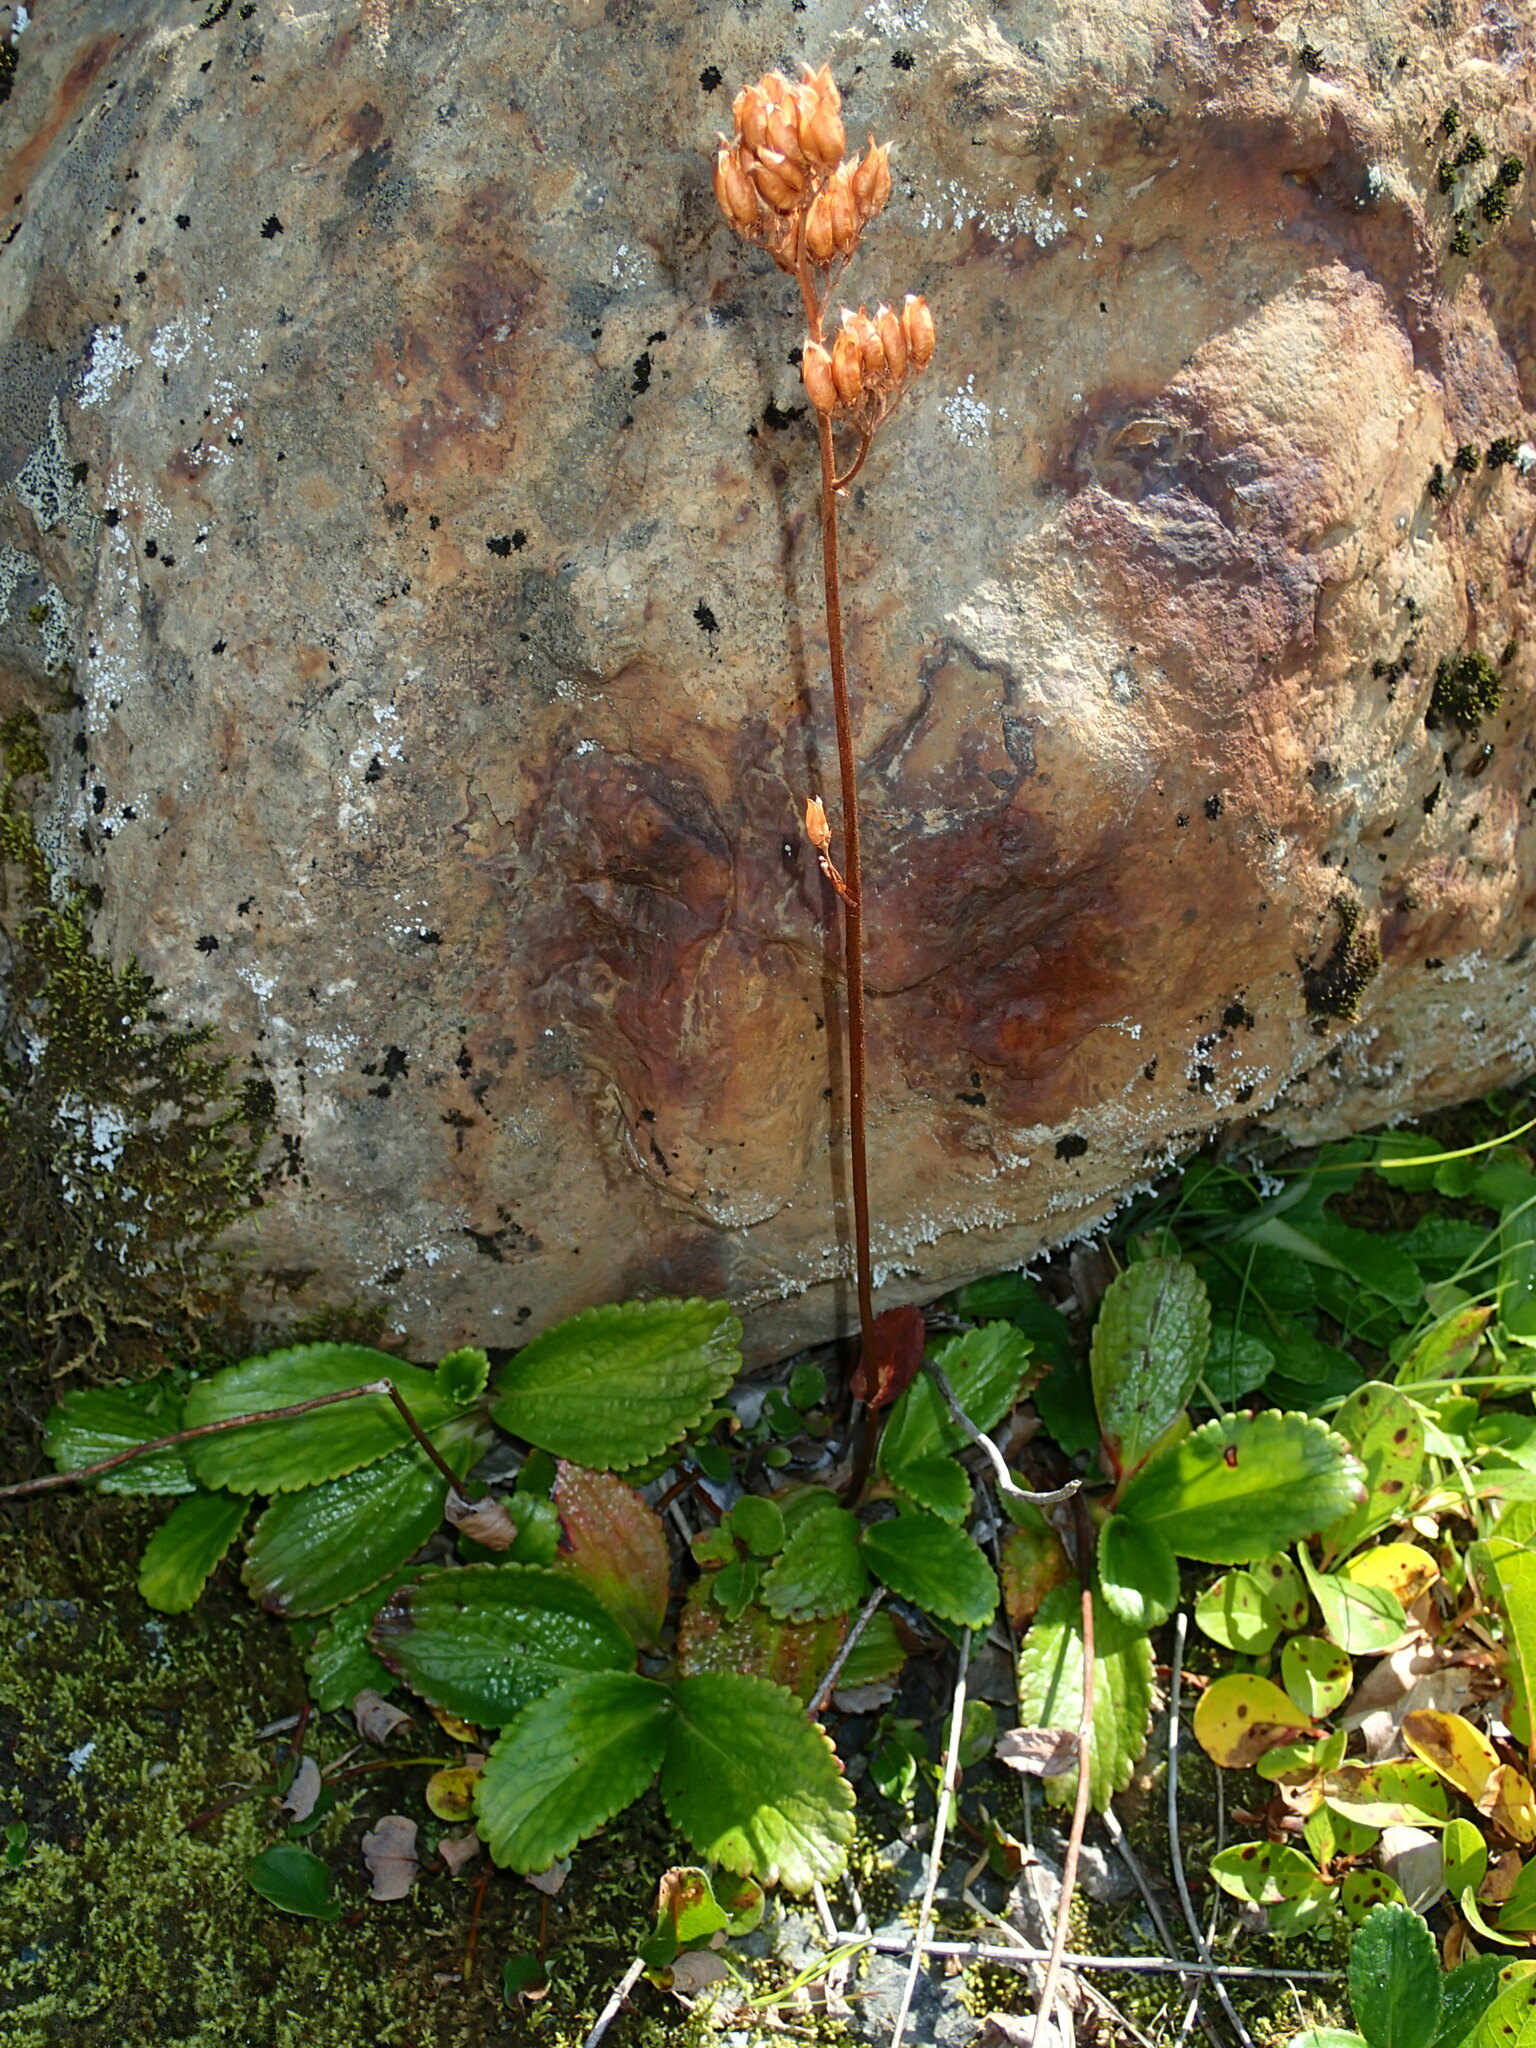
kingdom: Plantae
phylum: Tracheophyta
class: Magnoliopsida
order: Saxifragales
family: Saxifragaceae
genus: Leptarrhena
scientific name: Leptarrhena pyrolifolia
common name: Leatherleaf-saxifrage
